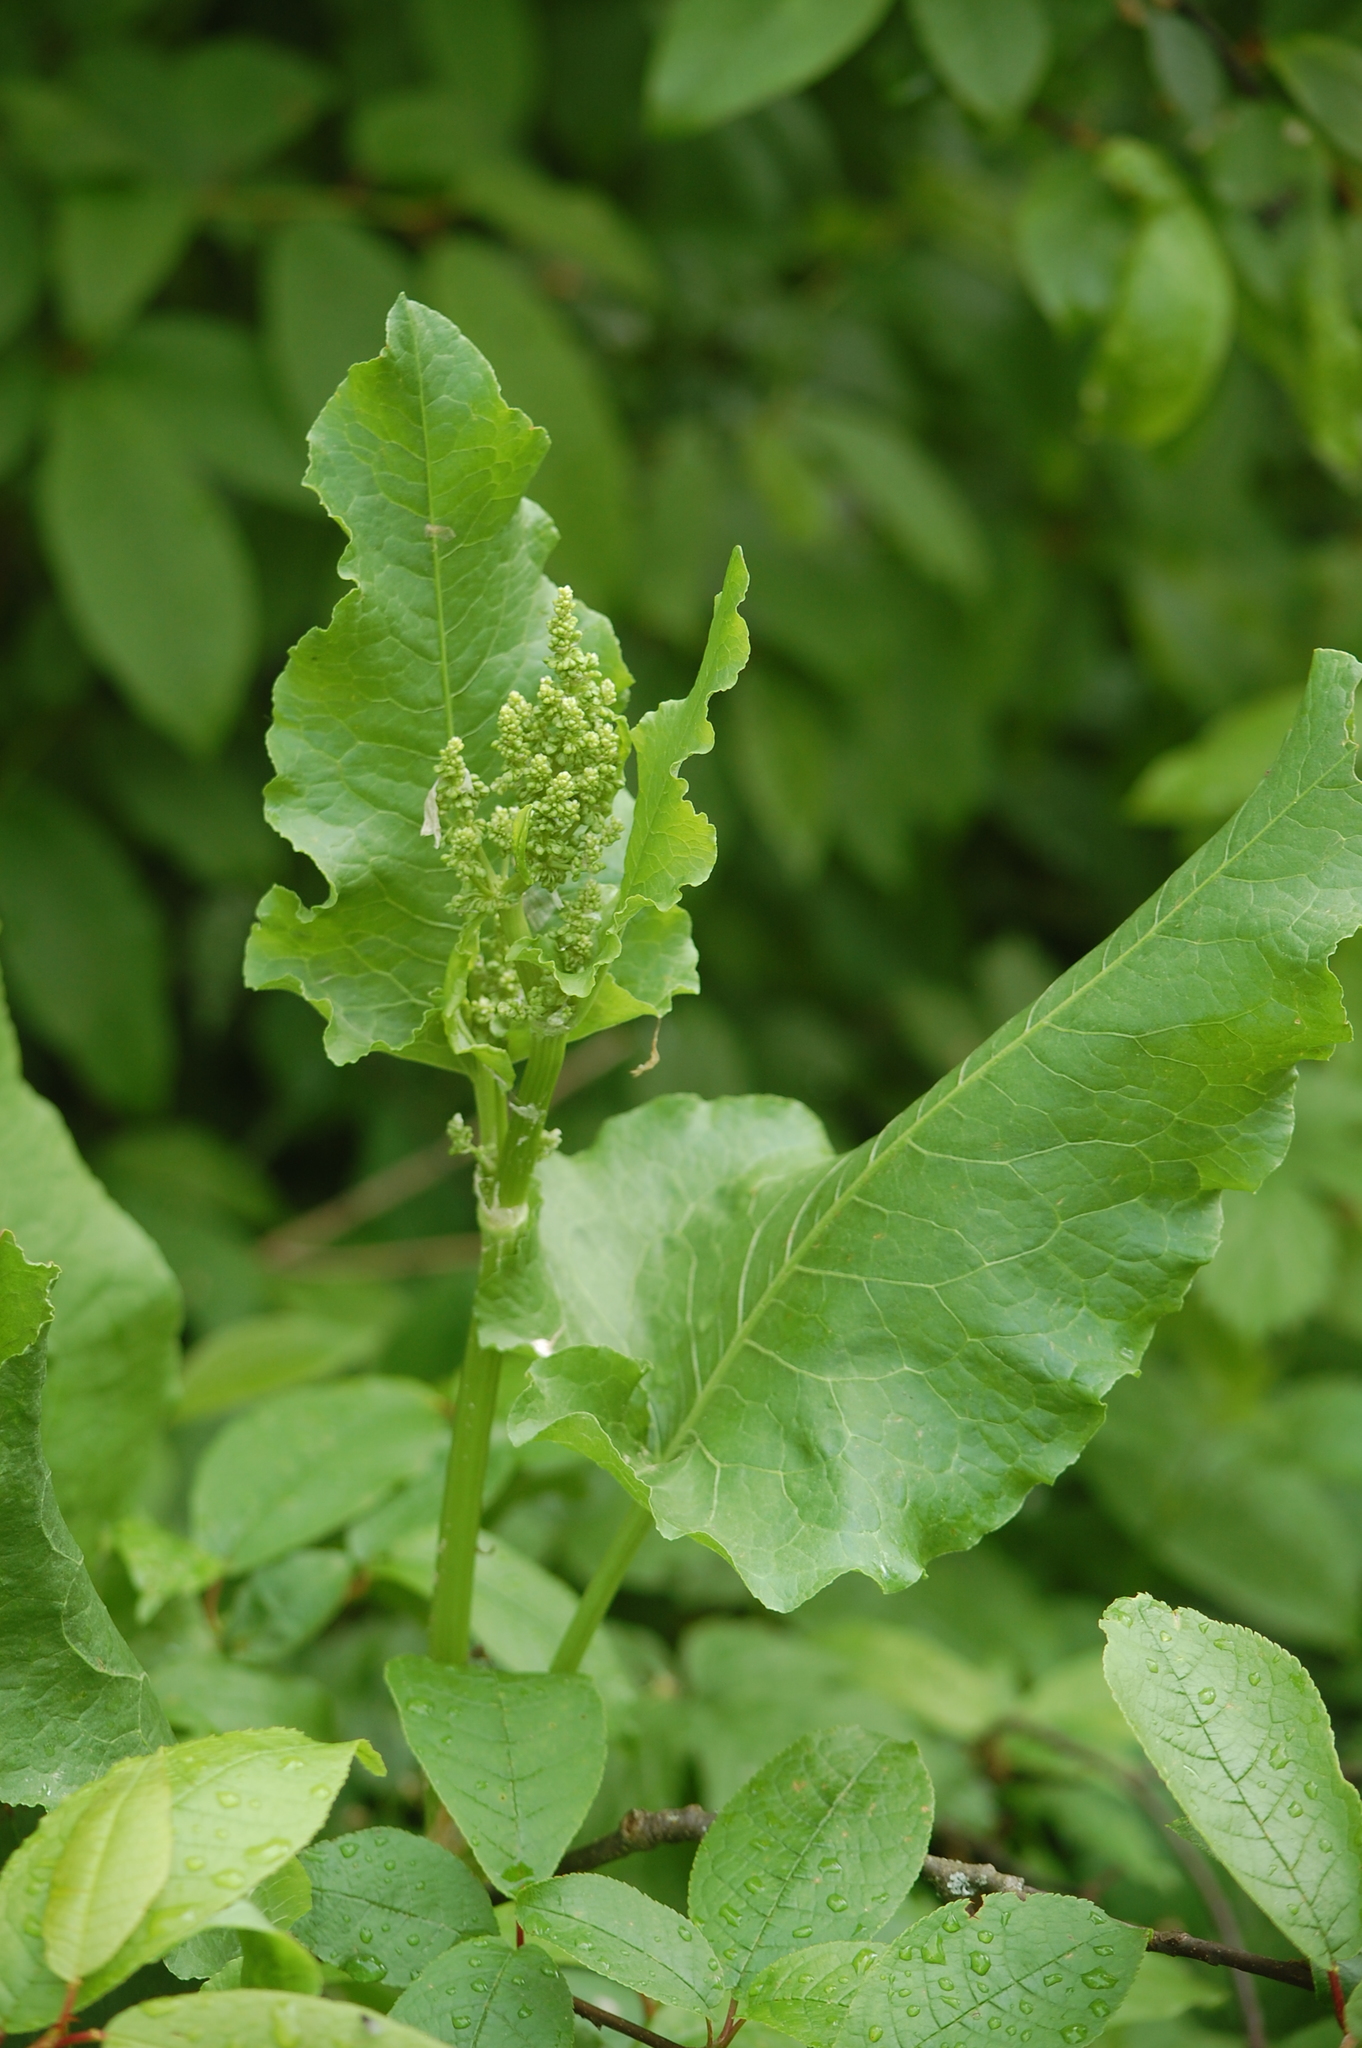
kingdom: Plantae
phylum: Tracheophyta
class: Magnoliopsida
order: Caryophyllales
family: Polygonaceae
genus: Rumex
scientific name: Rumex confertus
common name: Russian dock
